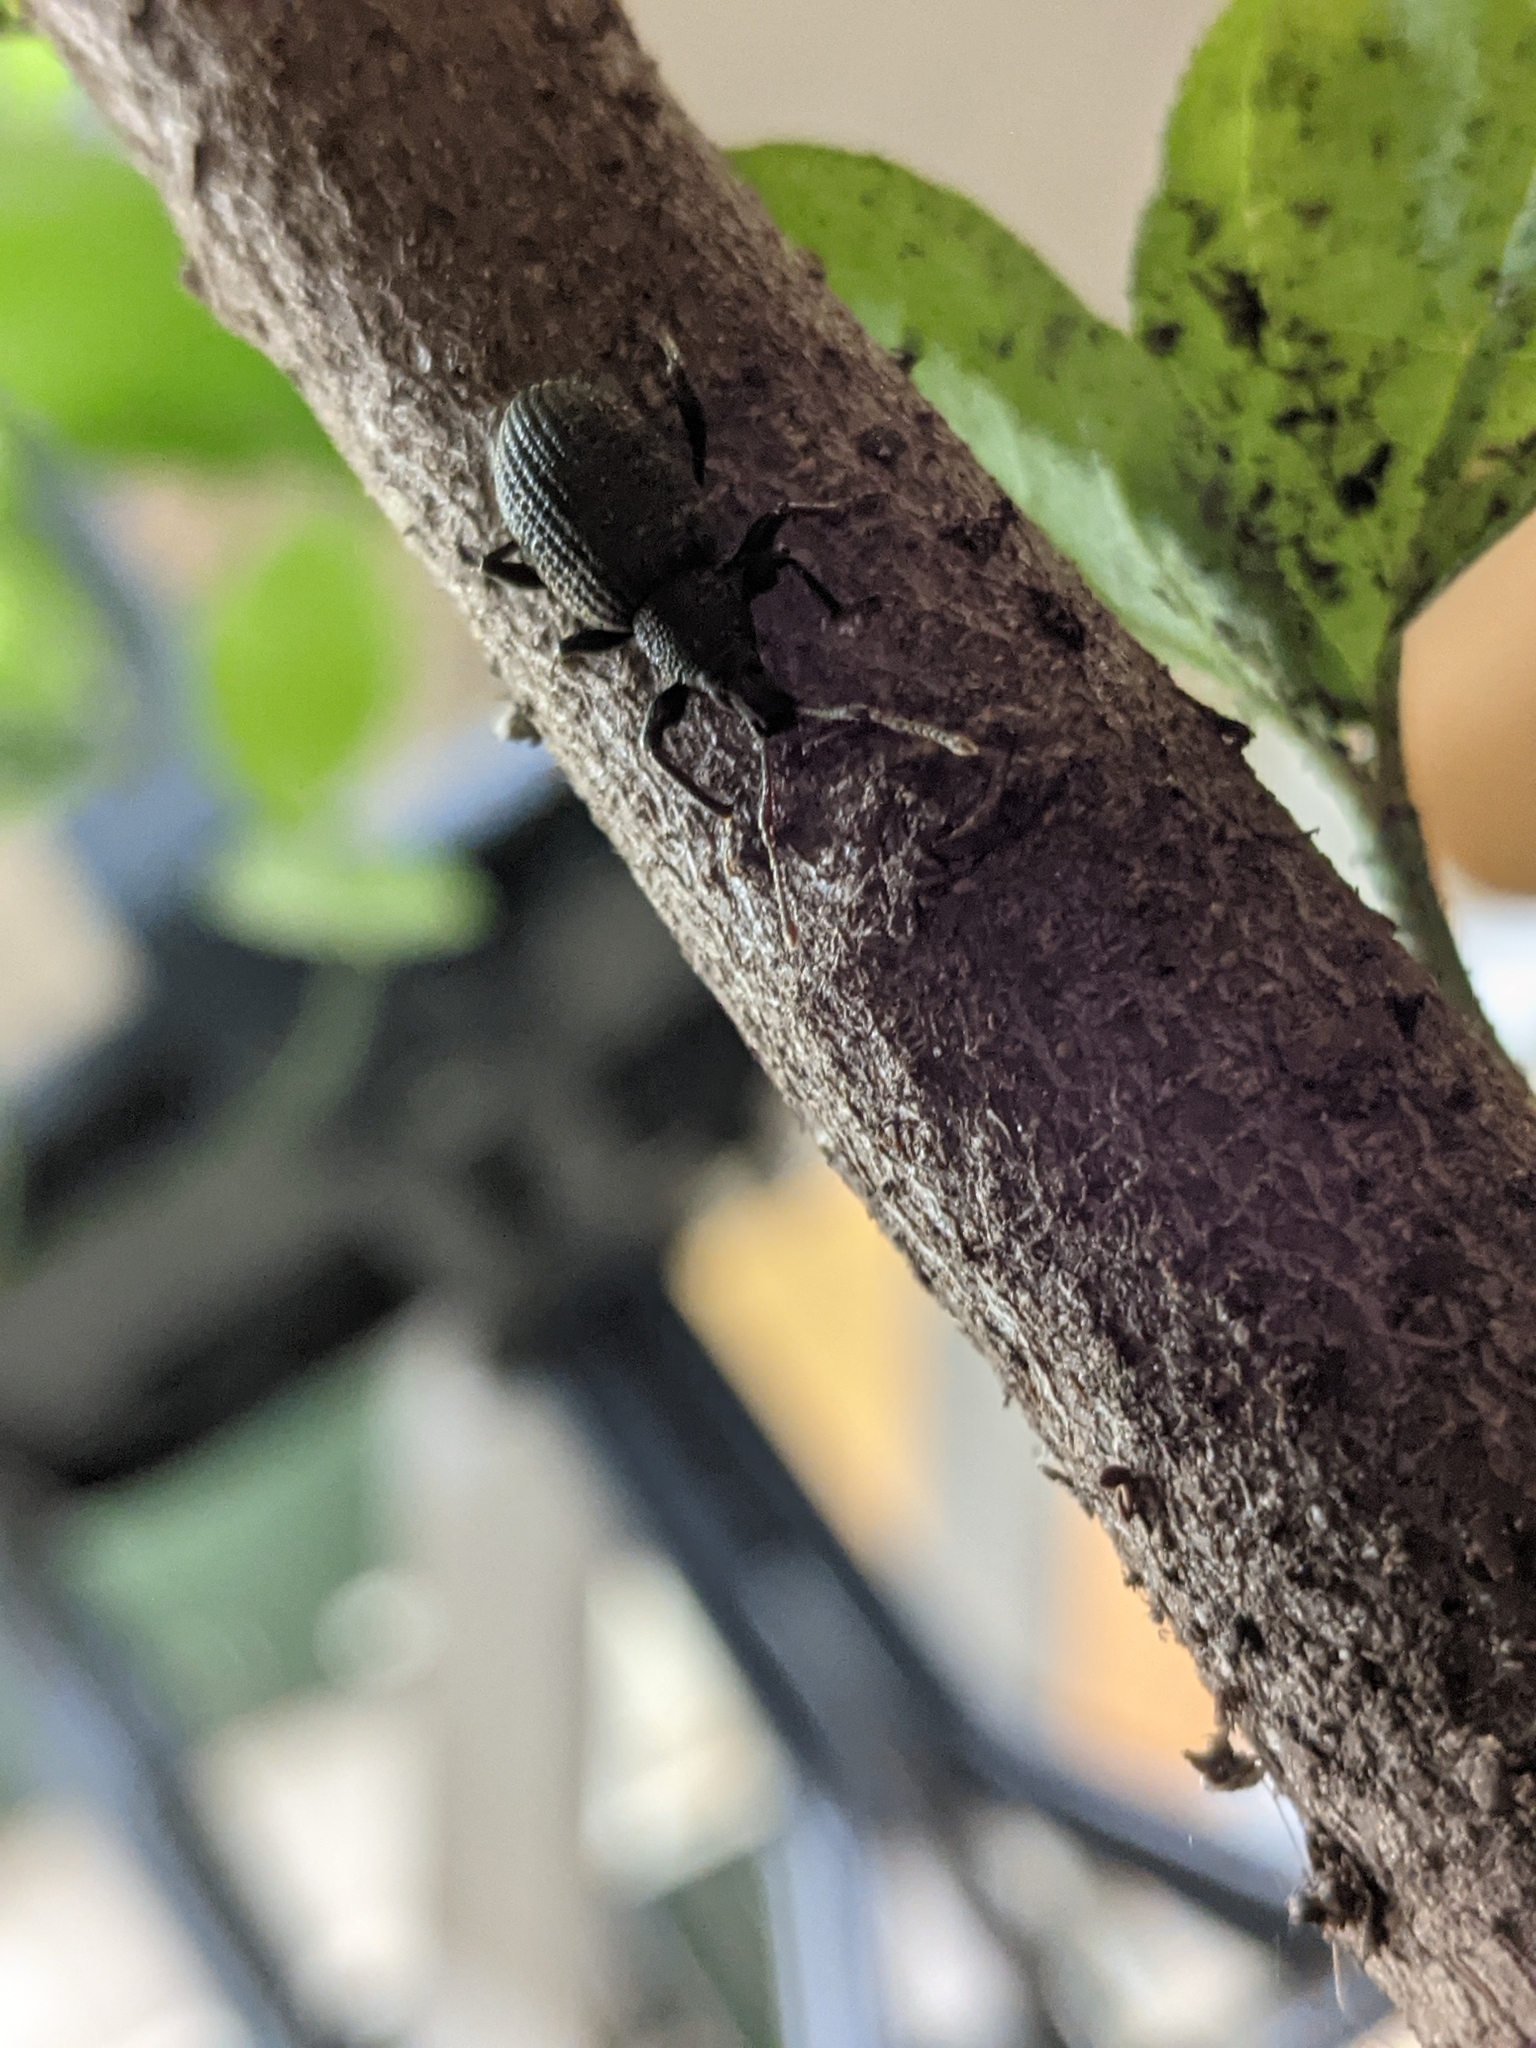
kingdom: Animalia
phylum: Arthropoda
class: Insecta
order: Coleoptera
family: Curculionidae
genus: Otiorhynchus
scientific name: Otiorhynchus sulcatus
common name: Black vine weevil
